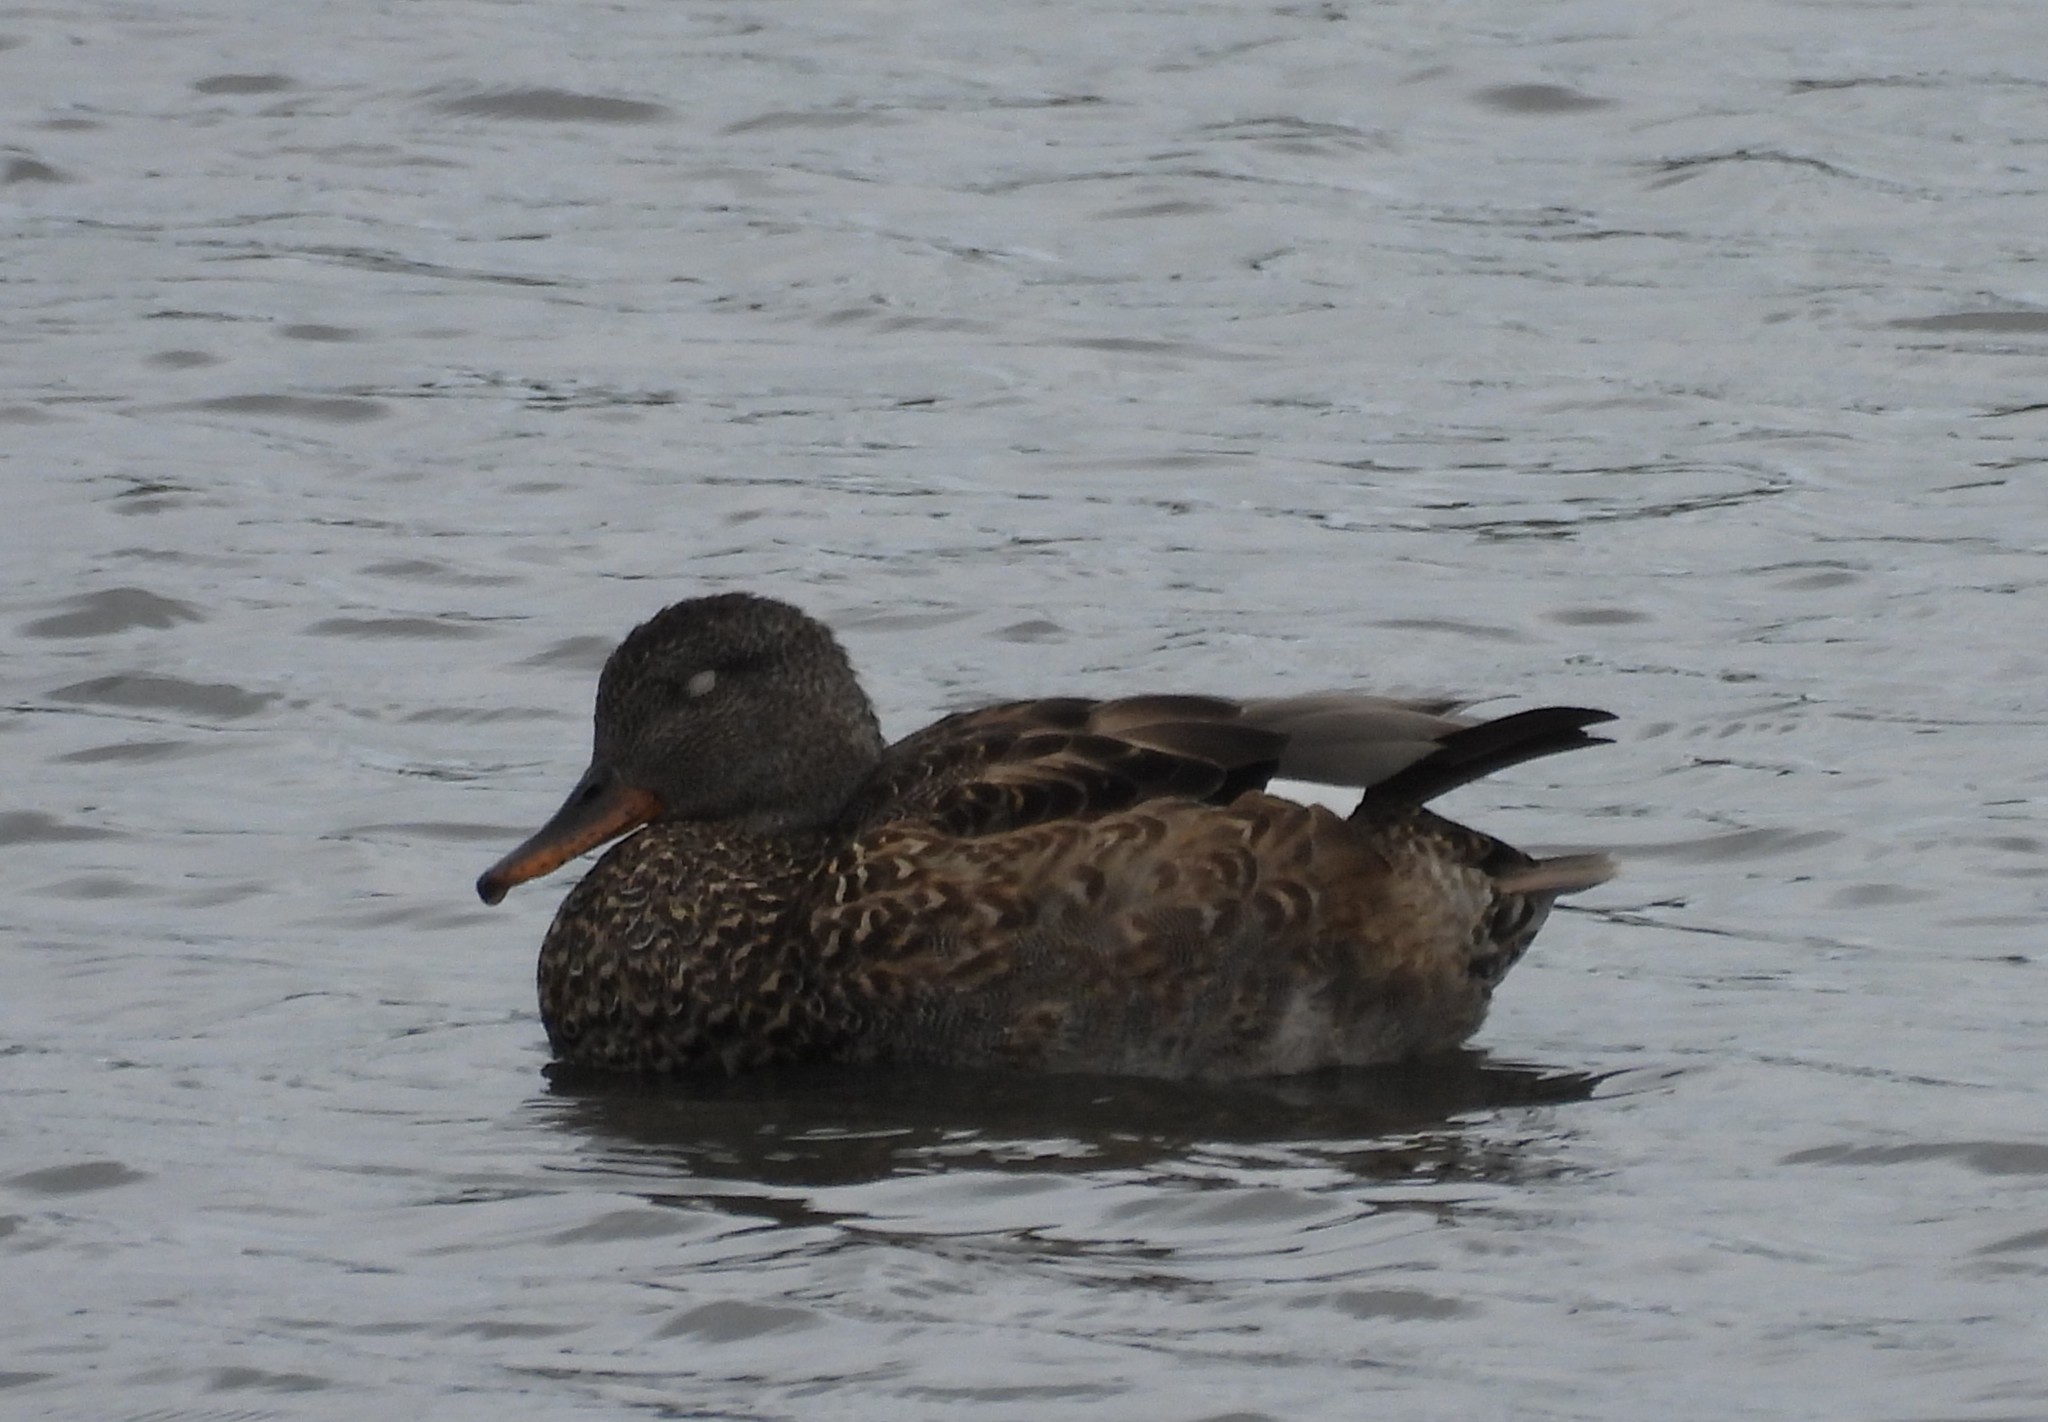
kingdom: Animalia
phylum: Chordata
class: Aves
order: Anseriformes
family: Anatidae
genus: Mareca
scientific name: Mareca strepera
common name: Gadwall
